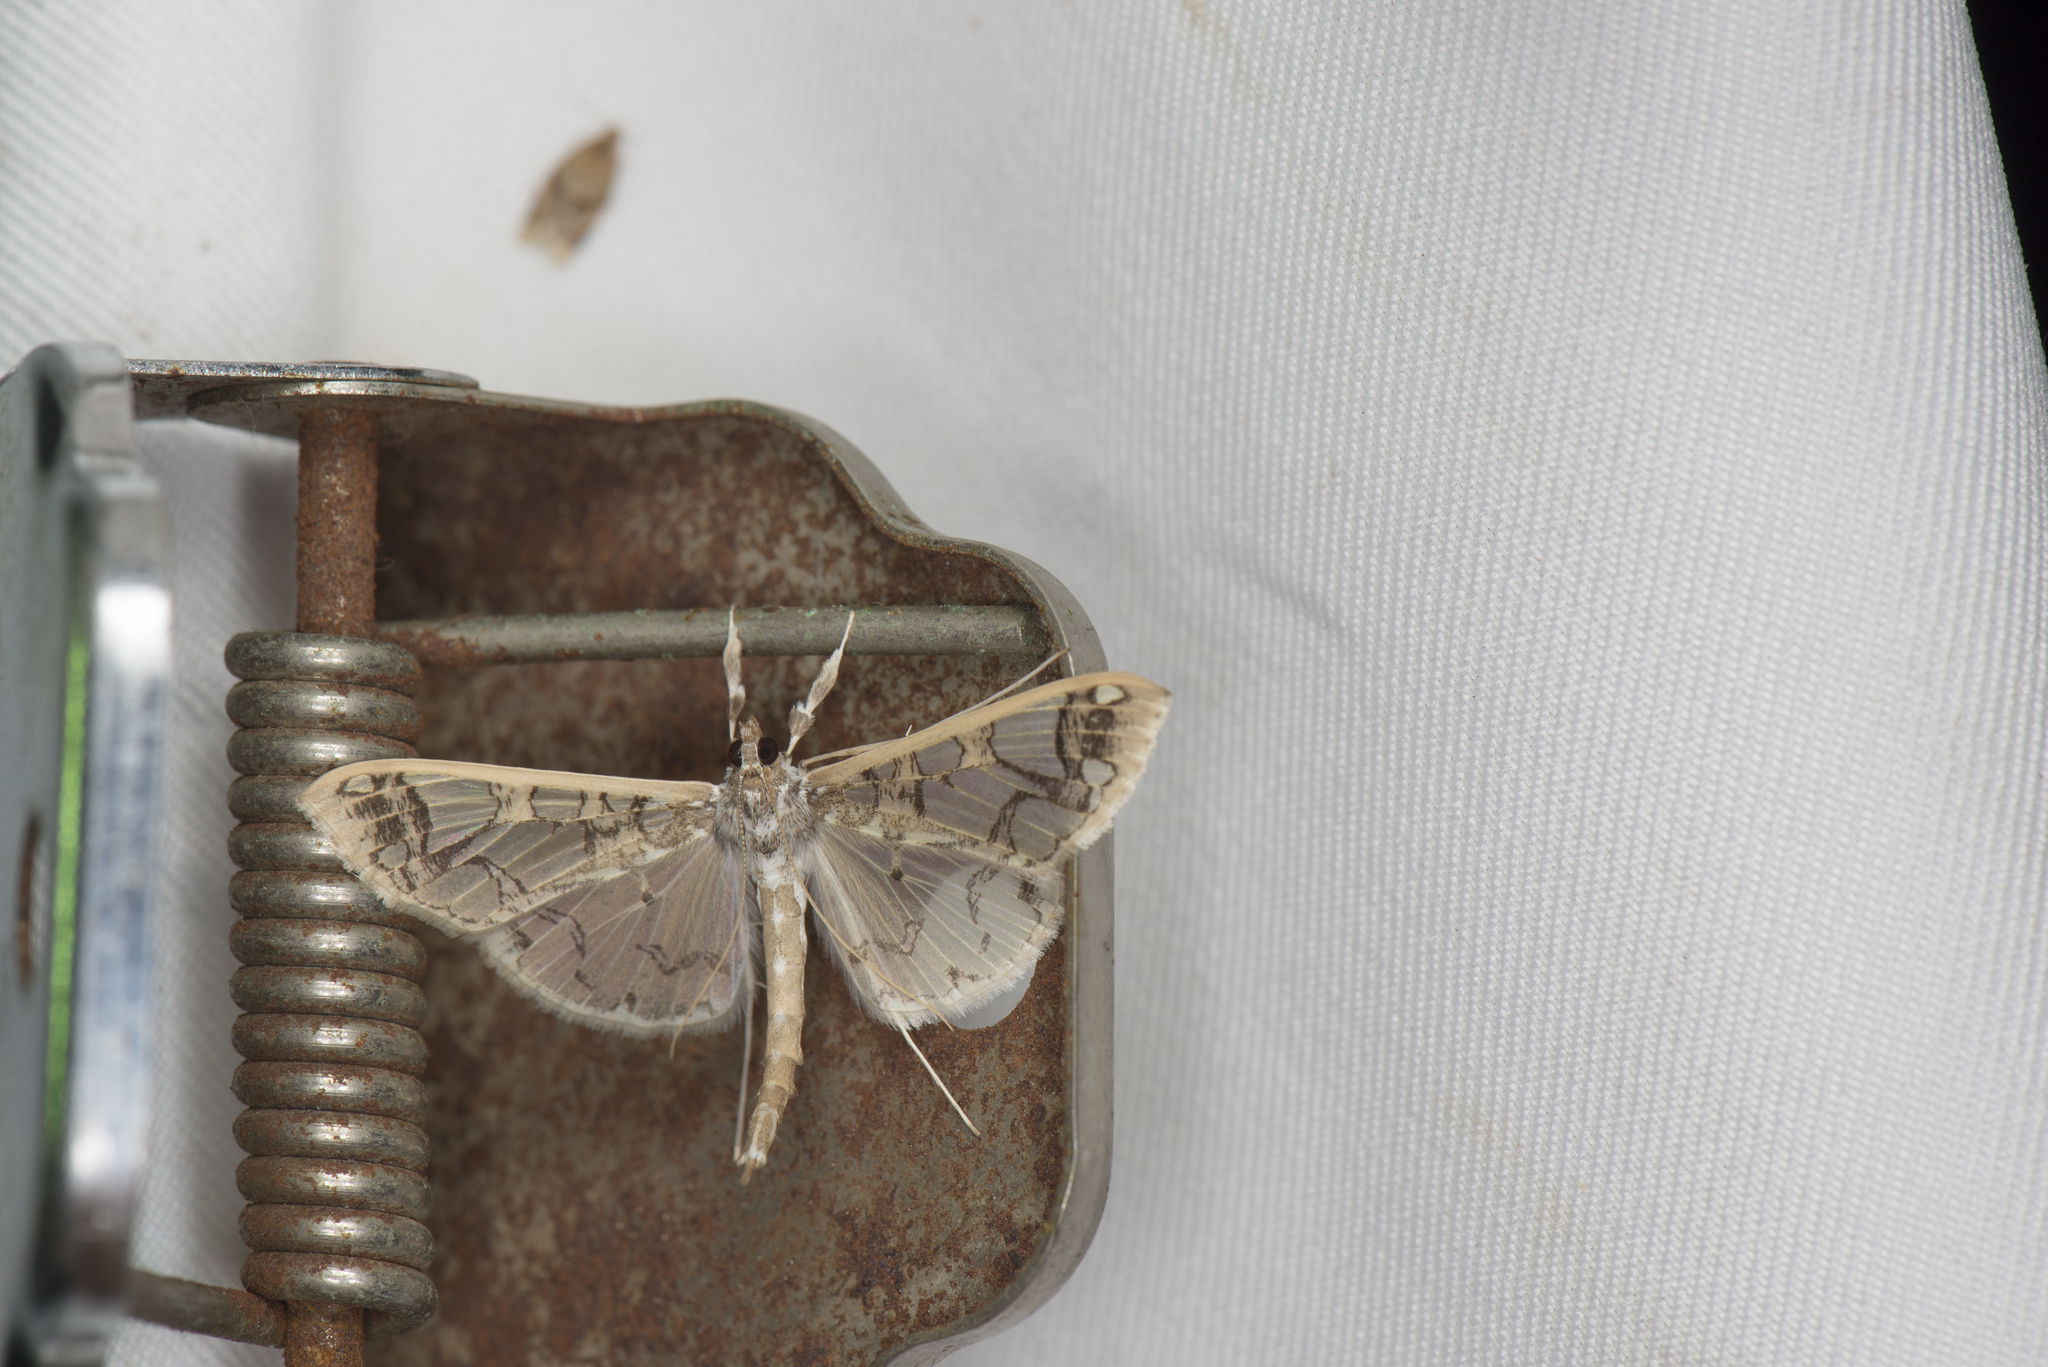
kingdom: Animalia
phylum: Arthropoda
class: Insecta
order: Lepidoptera
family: Crambidae
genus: Polythlipta
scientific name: Polythlipta divaricata
